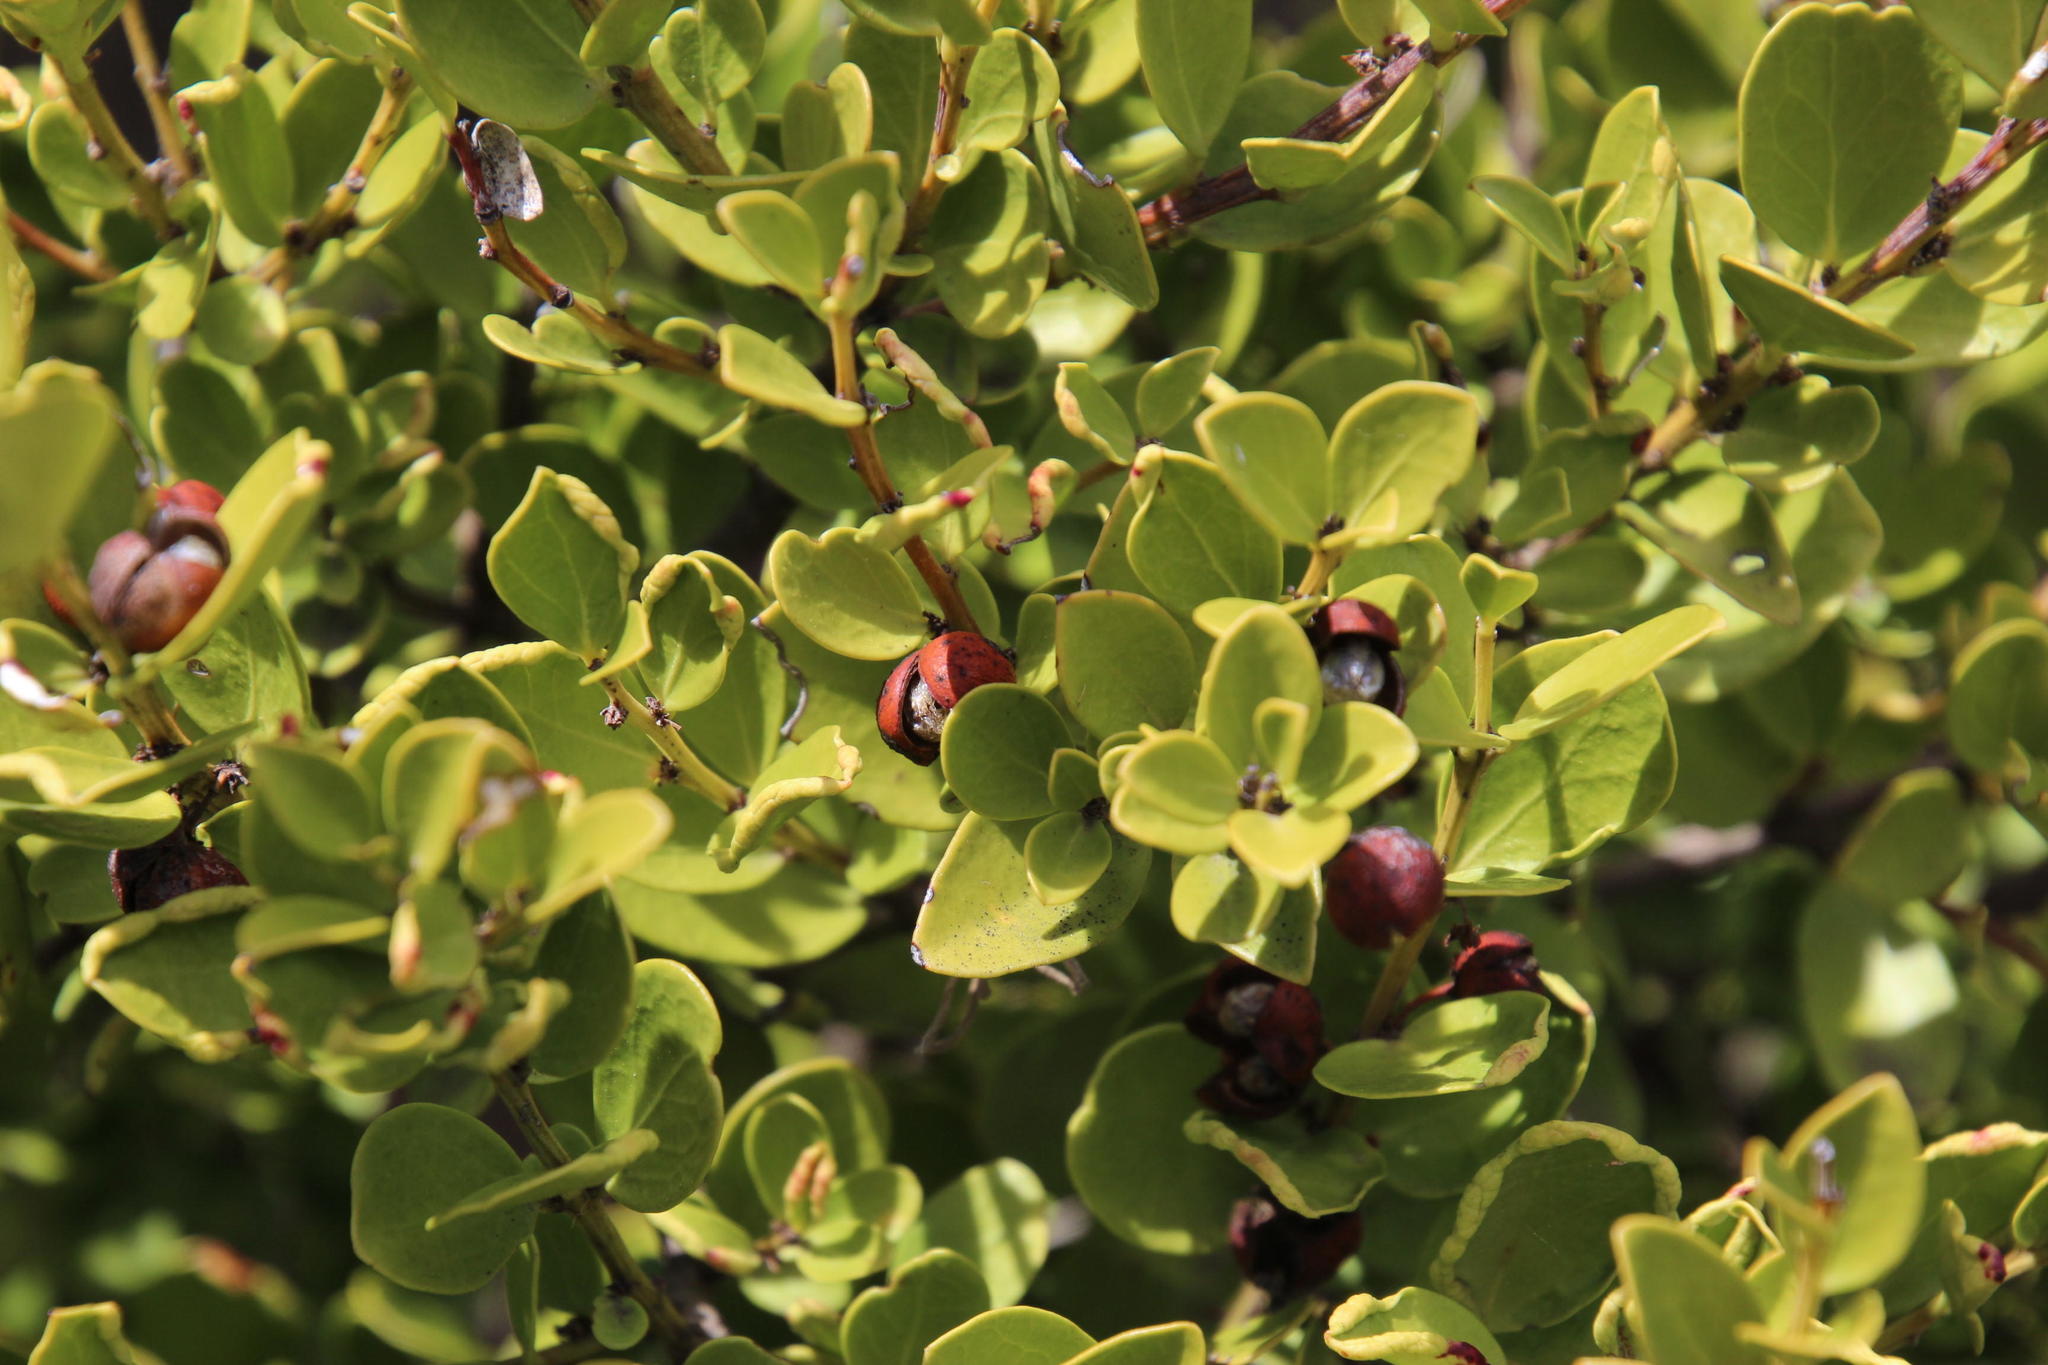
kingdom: Plantae
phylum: Tracheophyta
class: Magnoliopsida
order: Celastrales
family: Celastraceae
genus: Gymnosporia
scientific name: Gymnosporia lucida
